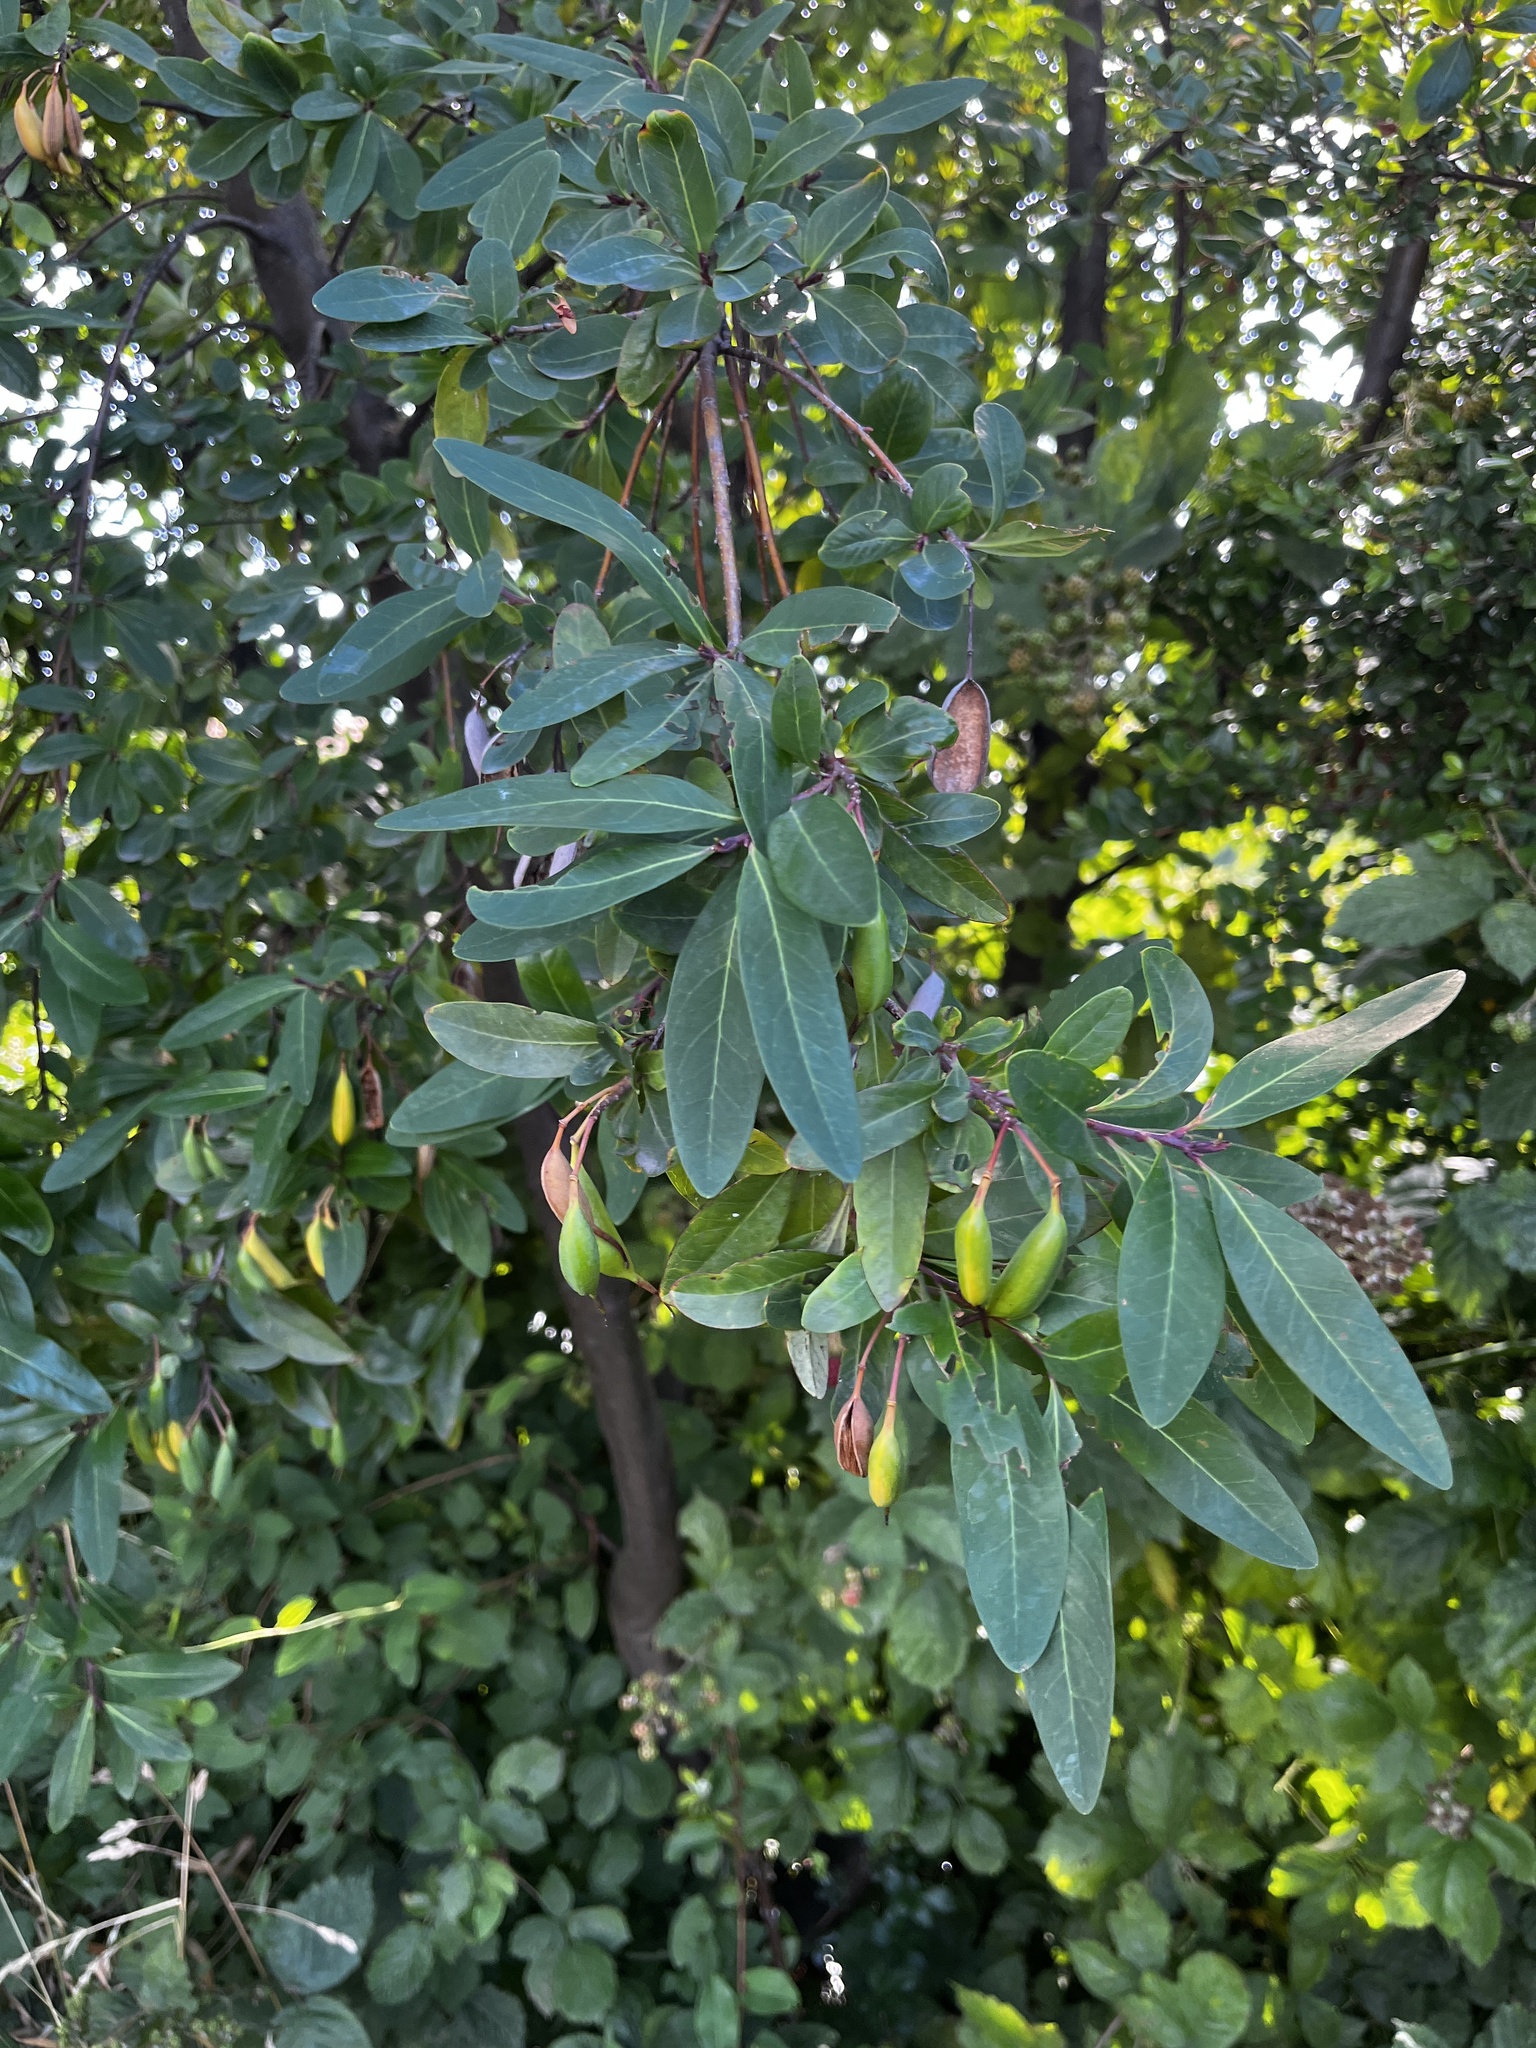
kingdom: Plantae
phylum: Tracheophyta
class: Magnoliopsida
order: Proteales
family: Proteaceae
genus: Embothrium
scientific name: Embothrium coccineum
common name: Chilean firebush
